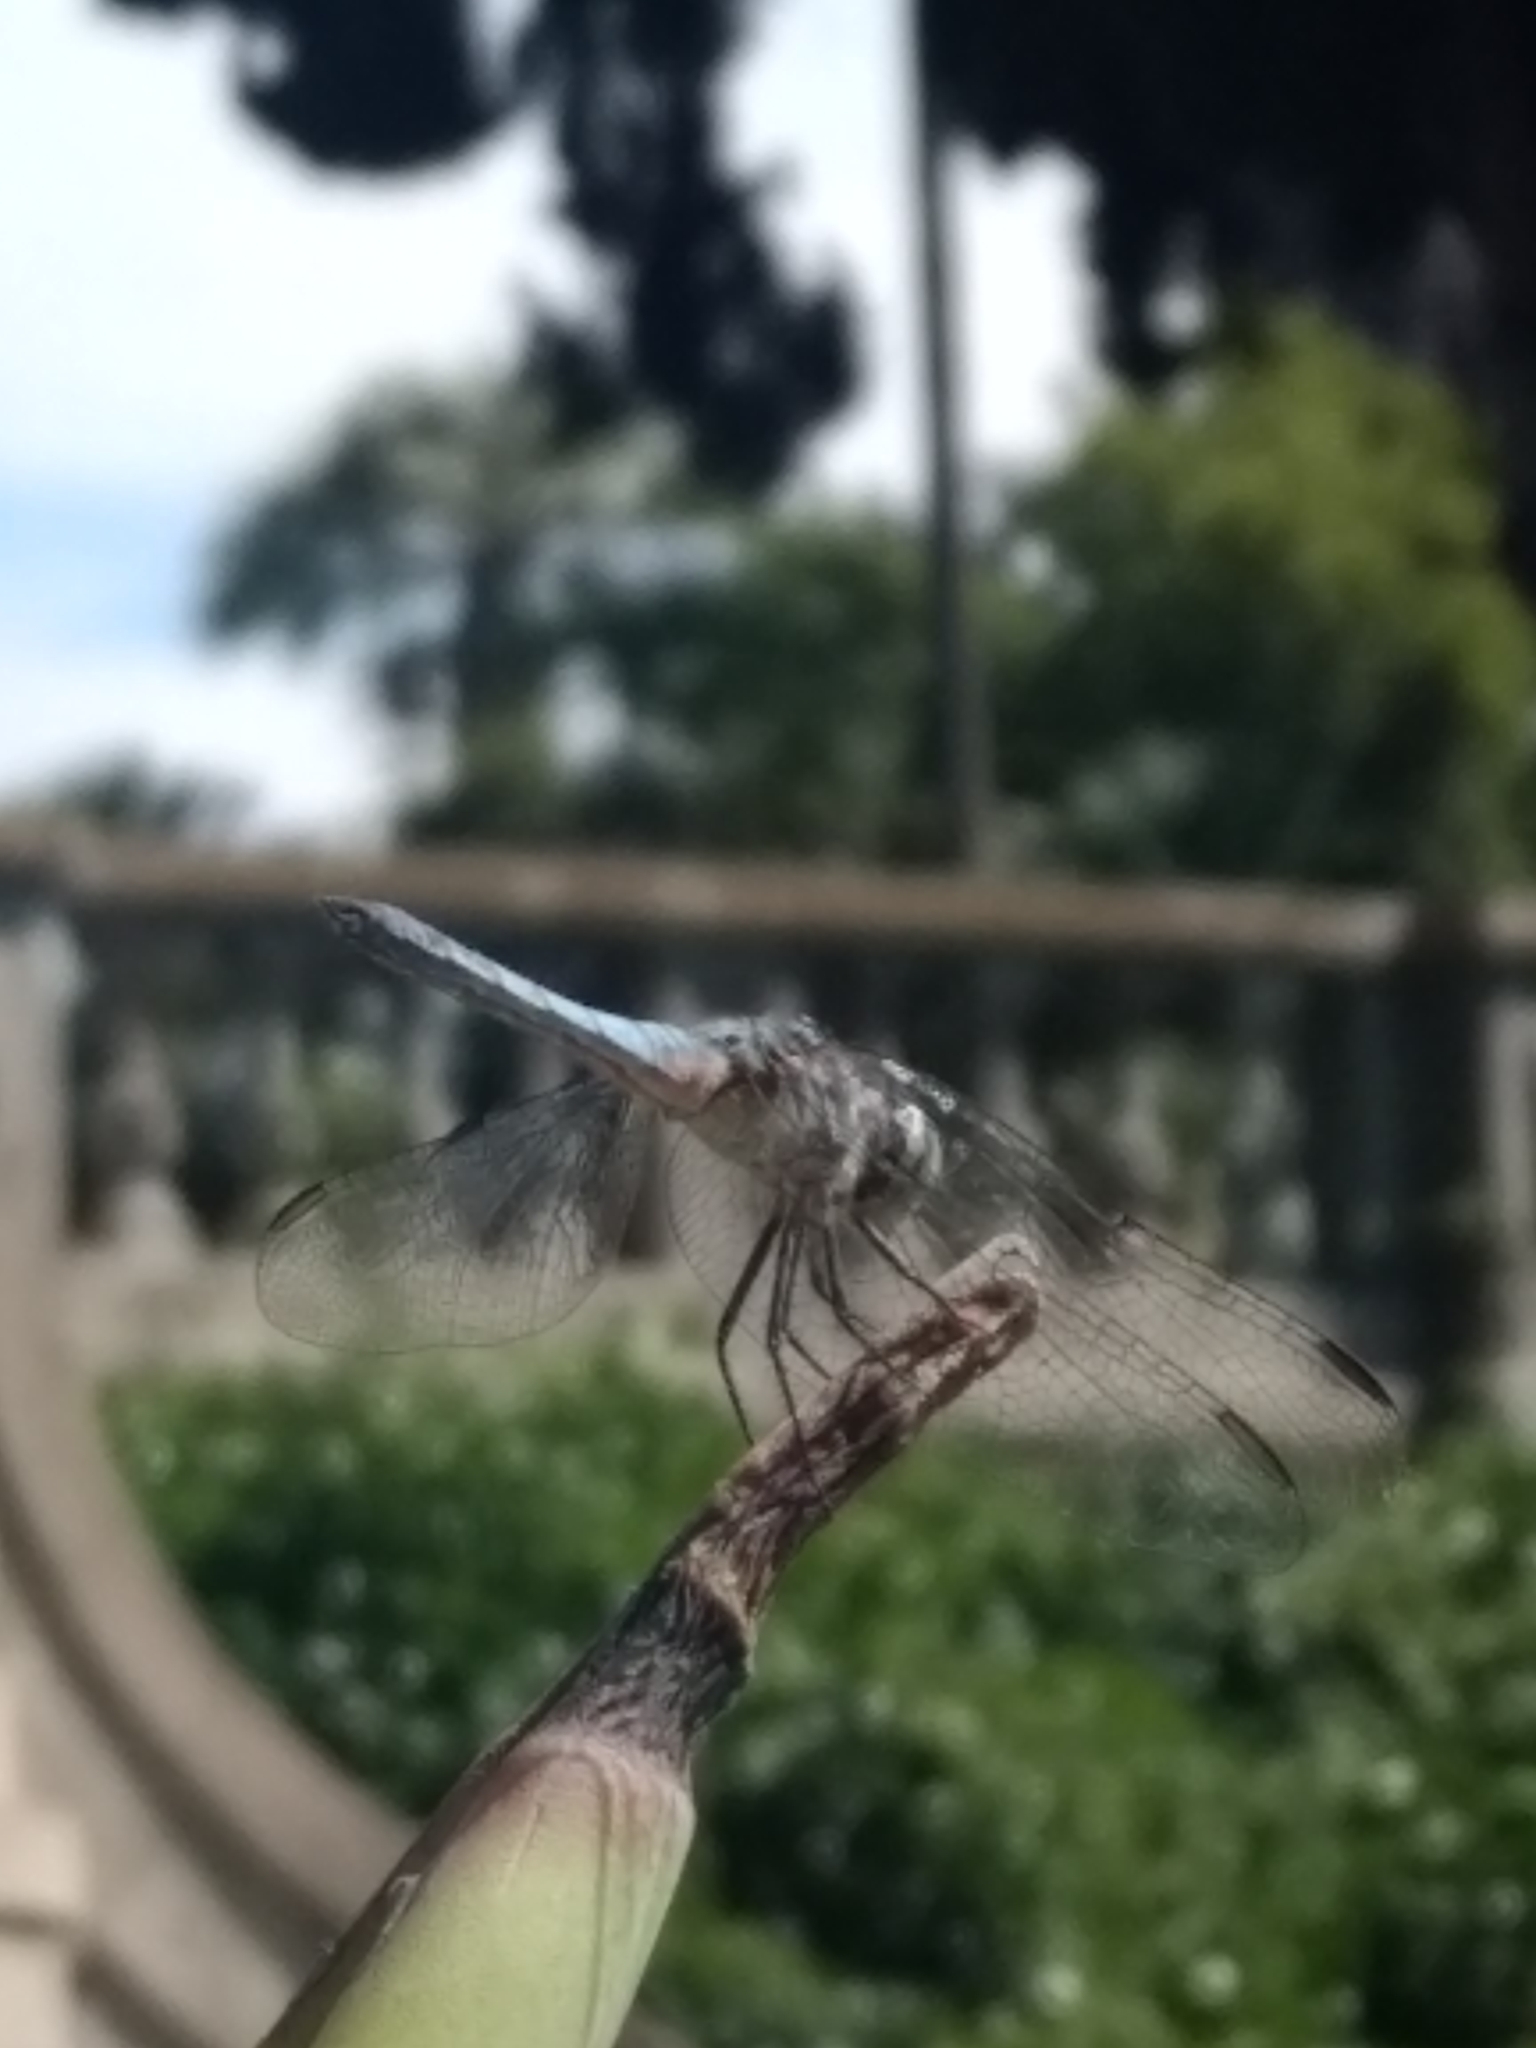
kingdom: Animalia
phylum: Arthropoda
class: Insecta
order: Odonata
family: Libellulidae
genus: Pachydiplax
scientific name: Pachydiplax longipennis
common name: Blue dasher
